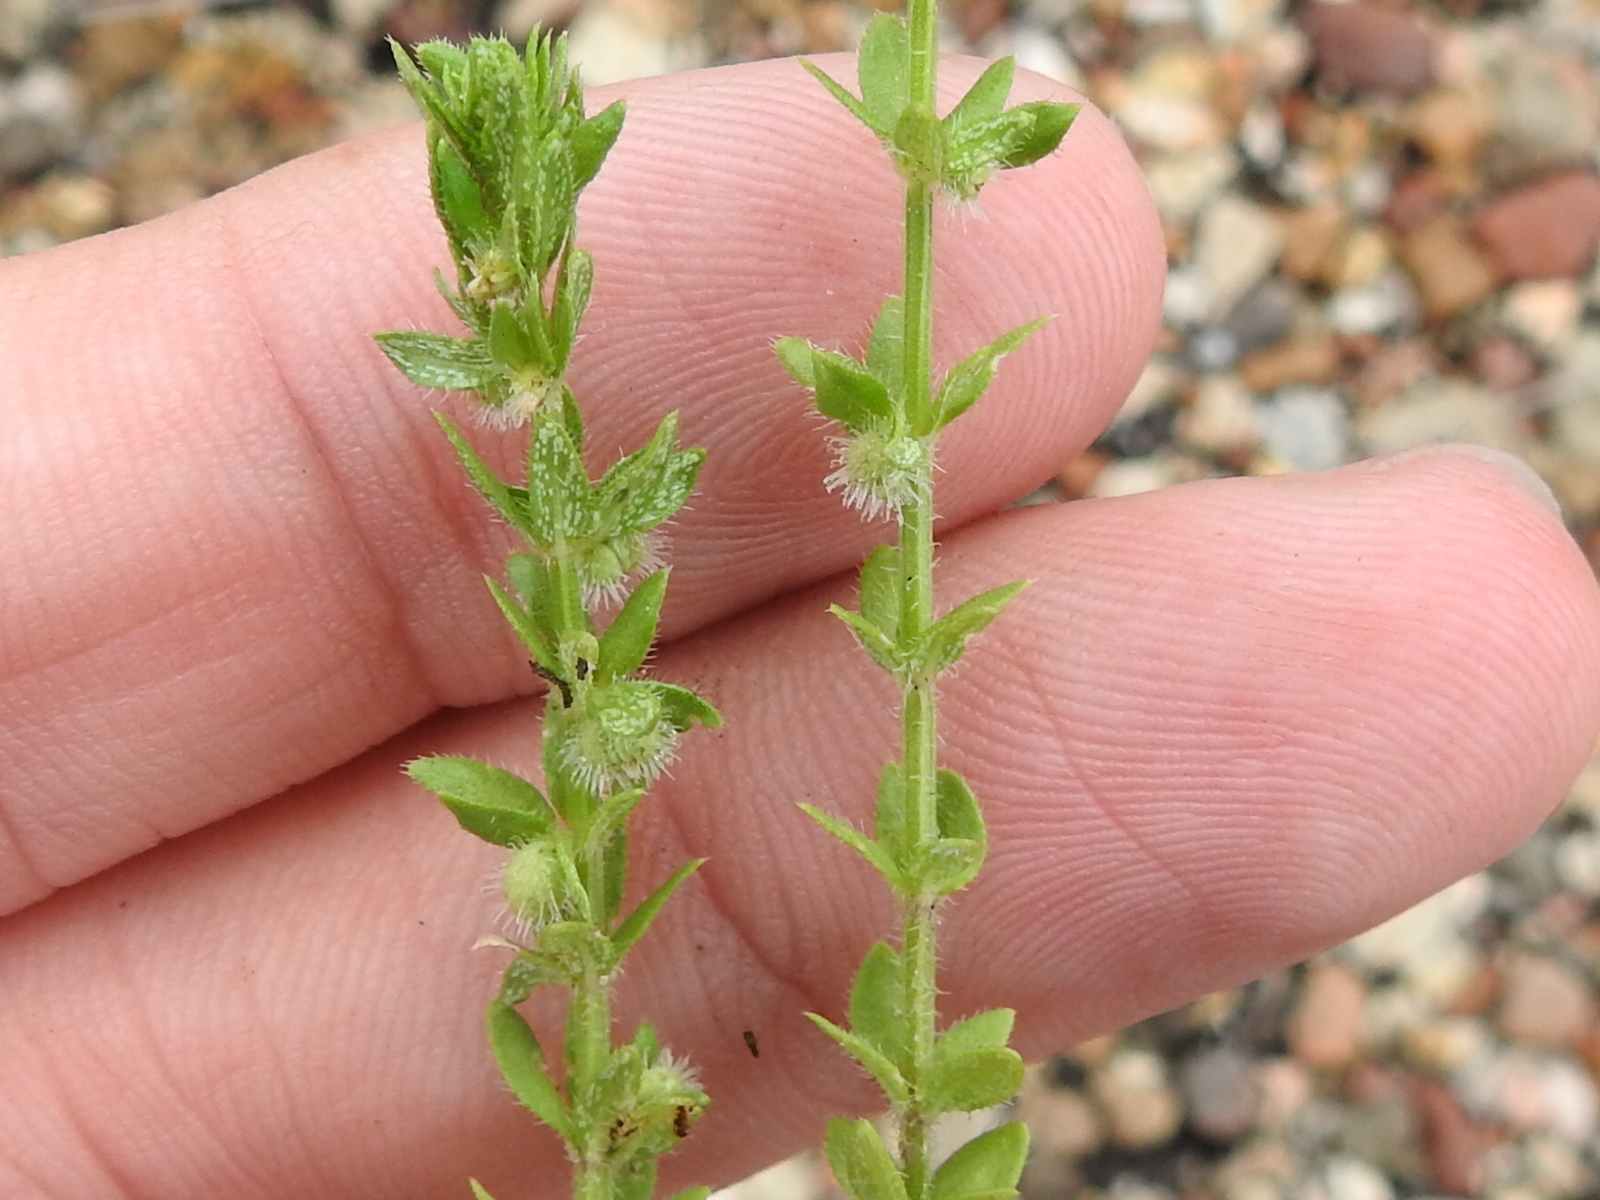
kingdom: Plantae
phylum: Tracheophyta
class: Magnoliopsida
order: Gentianales
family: Rubiaceae
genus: Galium
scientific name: Galium virgatum
